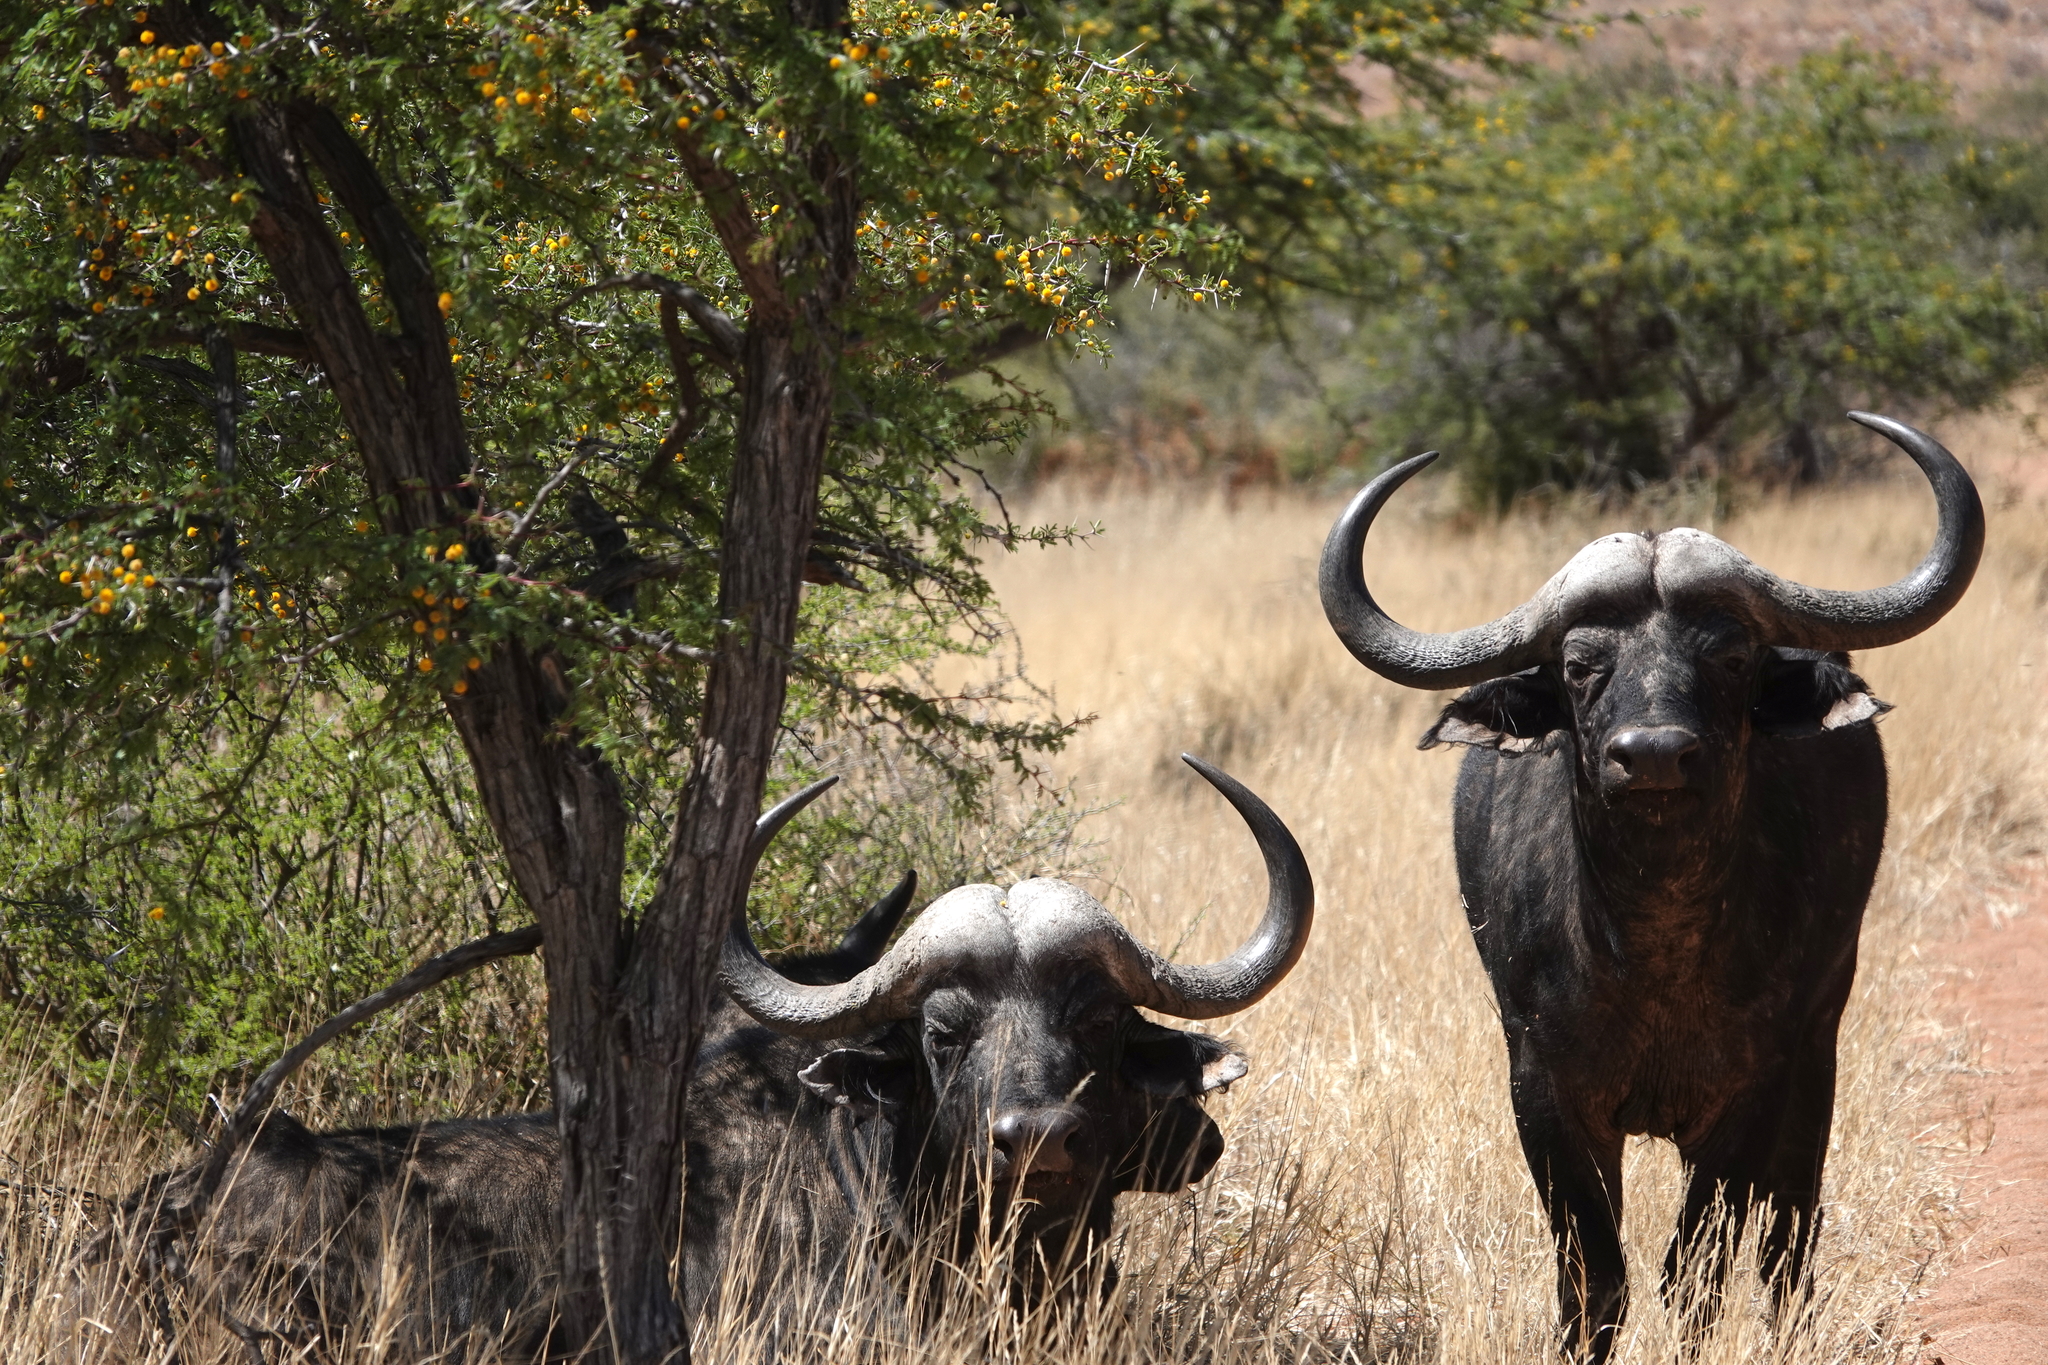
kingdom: Animalia
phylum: Chordata
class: Mammalia
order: Artiodactyla
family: Bovidae
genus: Syncerus
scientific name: Syncerus caffer
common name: African buffalo
